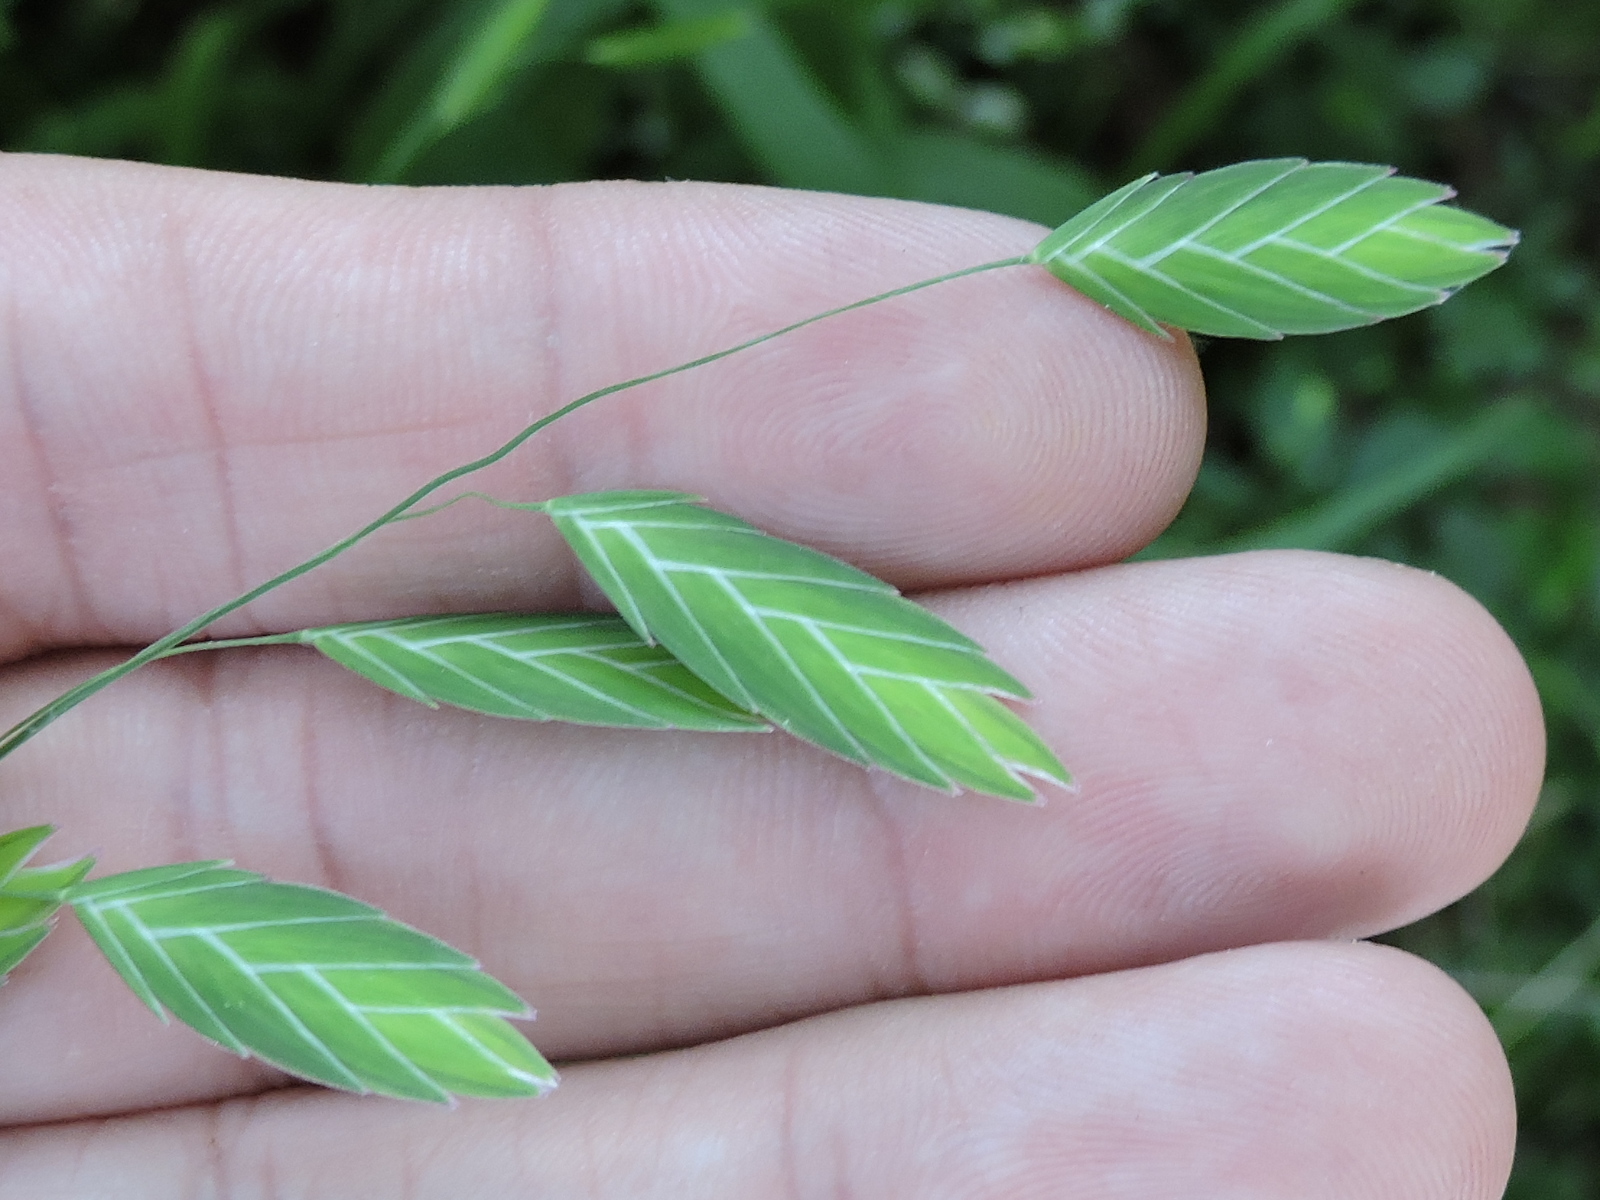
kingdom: Plantae
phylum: Tracheophyta
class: Liliopsida
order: Poales
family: Poaceae
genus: Chasmanthium
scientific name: Chasmanthium latifolium
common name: Broad-leaved chasmanthium
